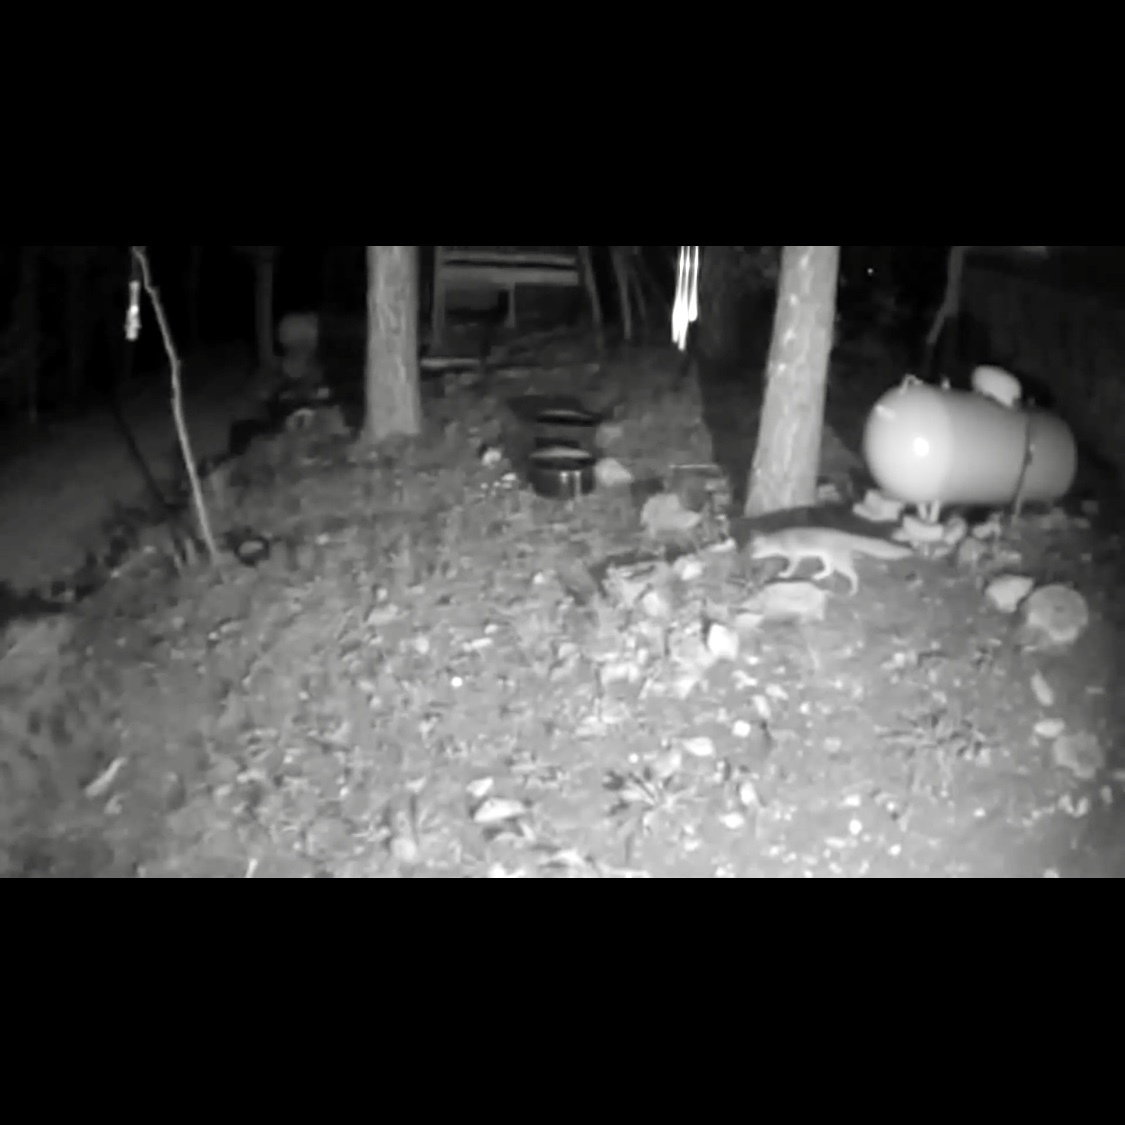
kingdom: Animalia
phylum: Chordata
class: Mammalia
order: Carnivora
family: Canidae
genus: Urocyon
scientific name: Urocyon cinereoargenteus
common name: Gray fox
